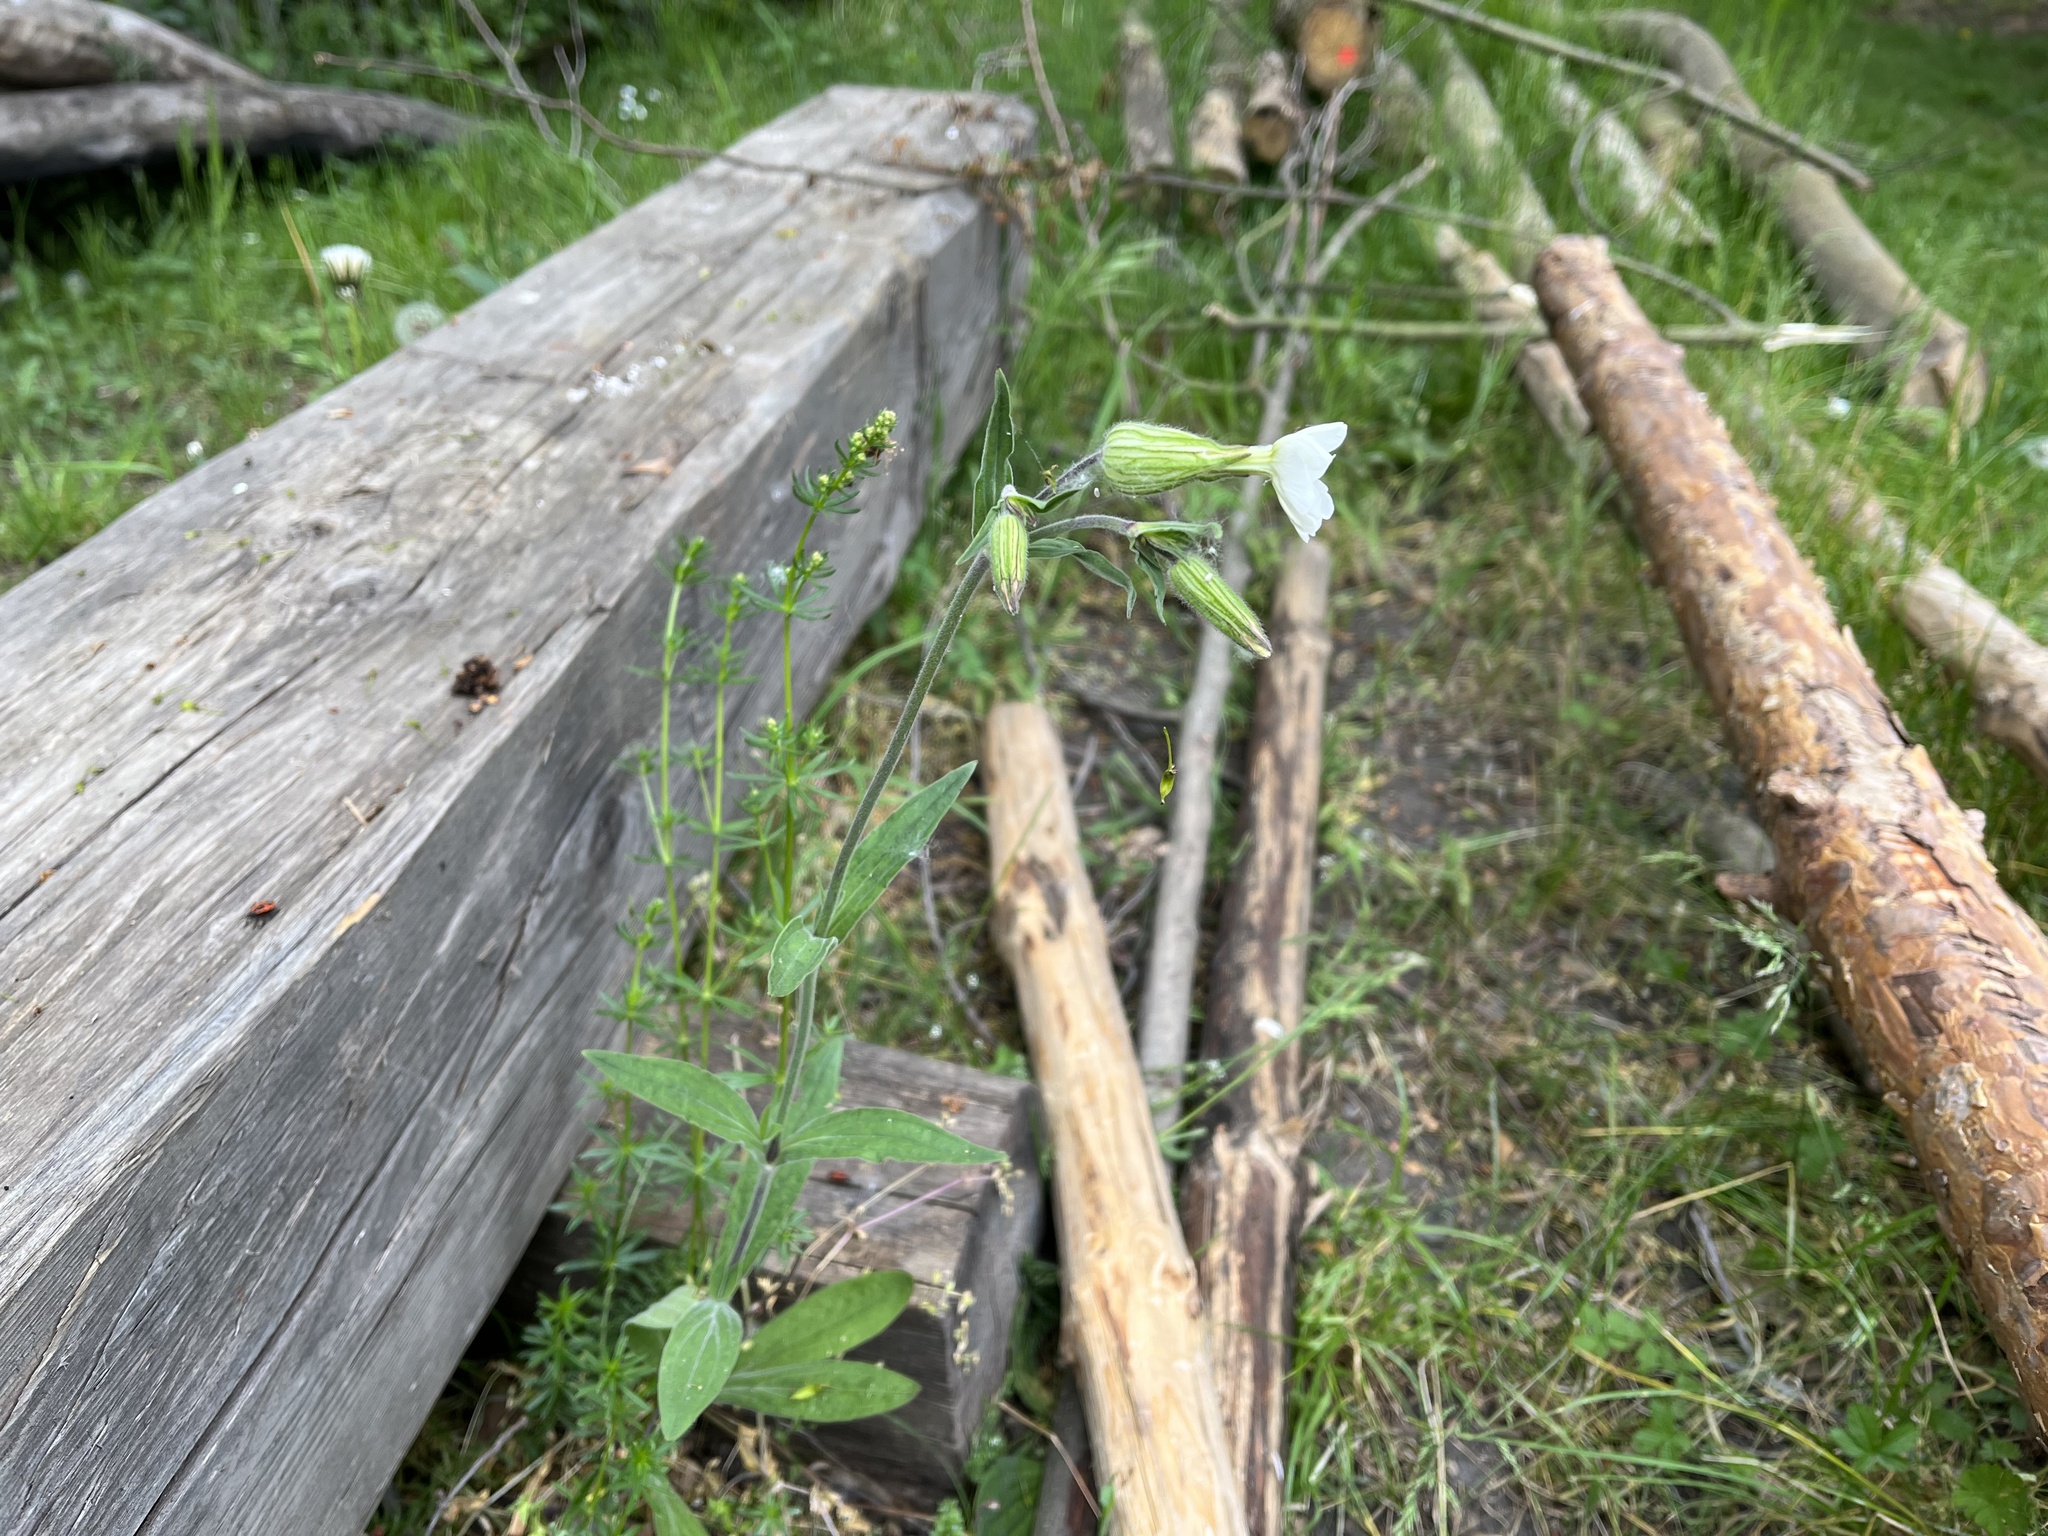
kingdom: Plantae
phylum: Tracheophyta
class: Magnoliopsida
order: Caryophyllales
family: Caryophyllaceae
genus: Silene
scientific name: Silene latifolia
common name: White campion
